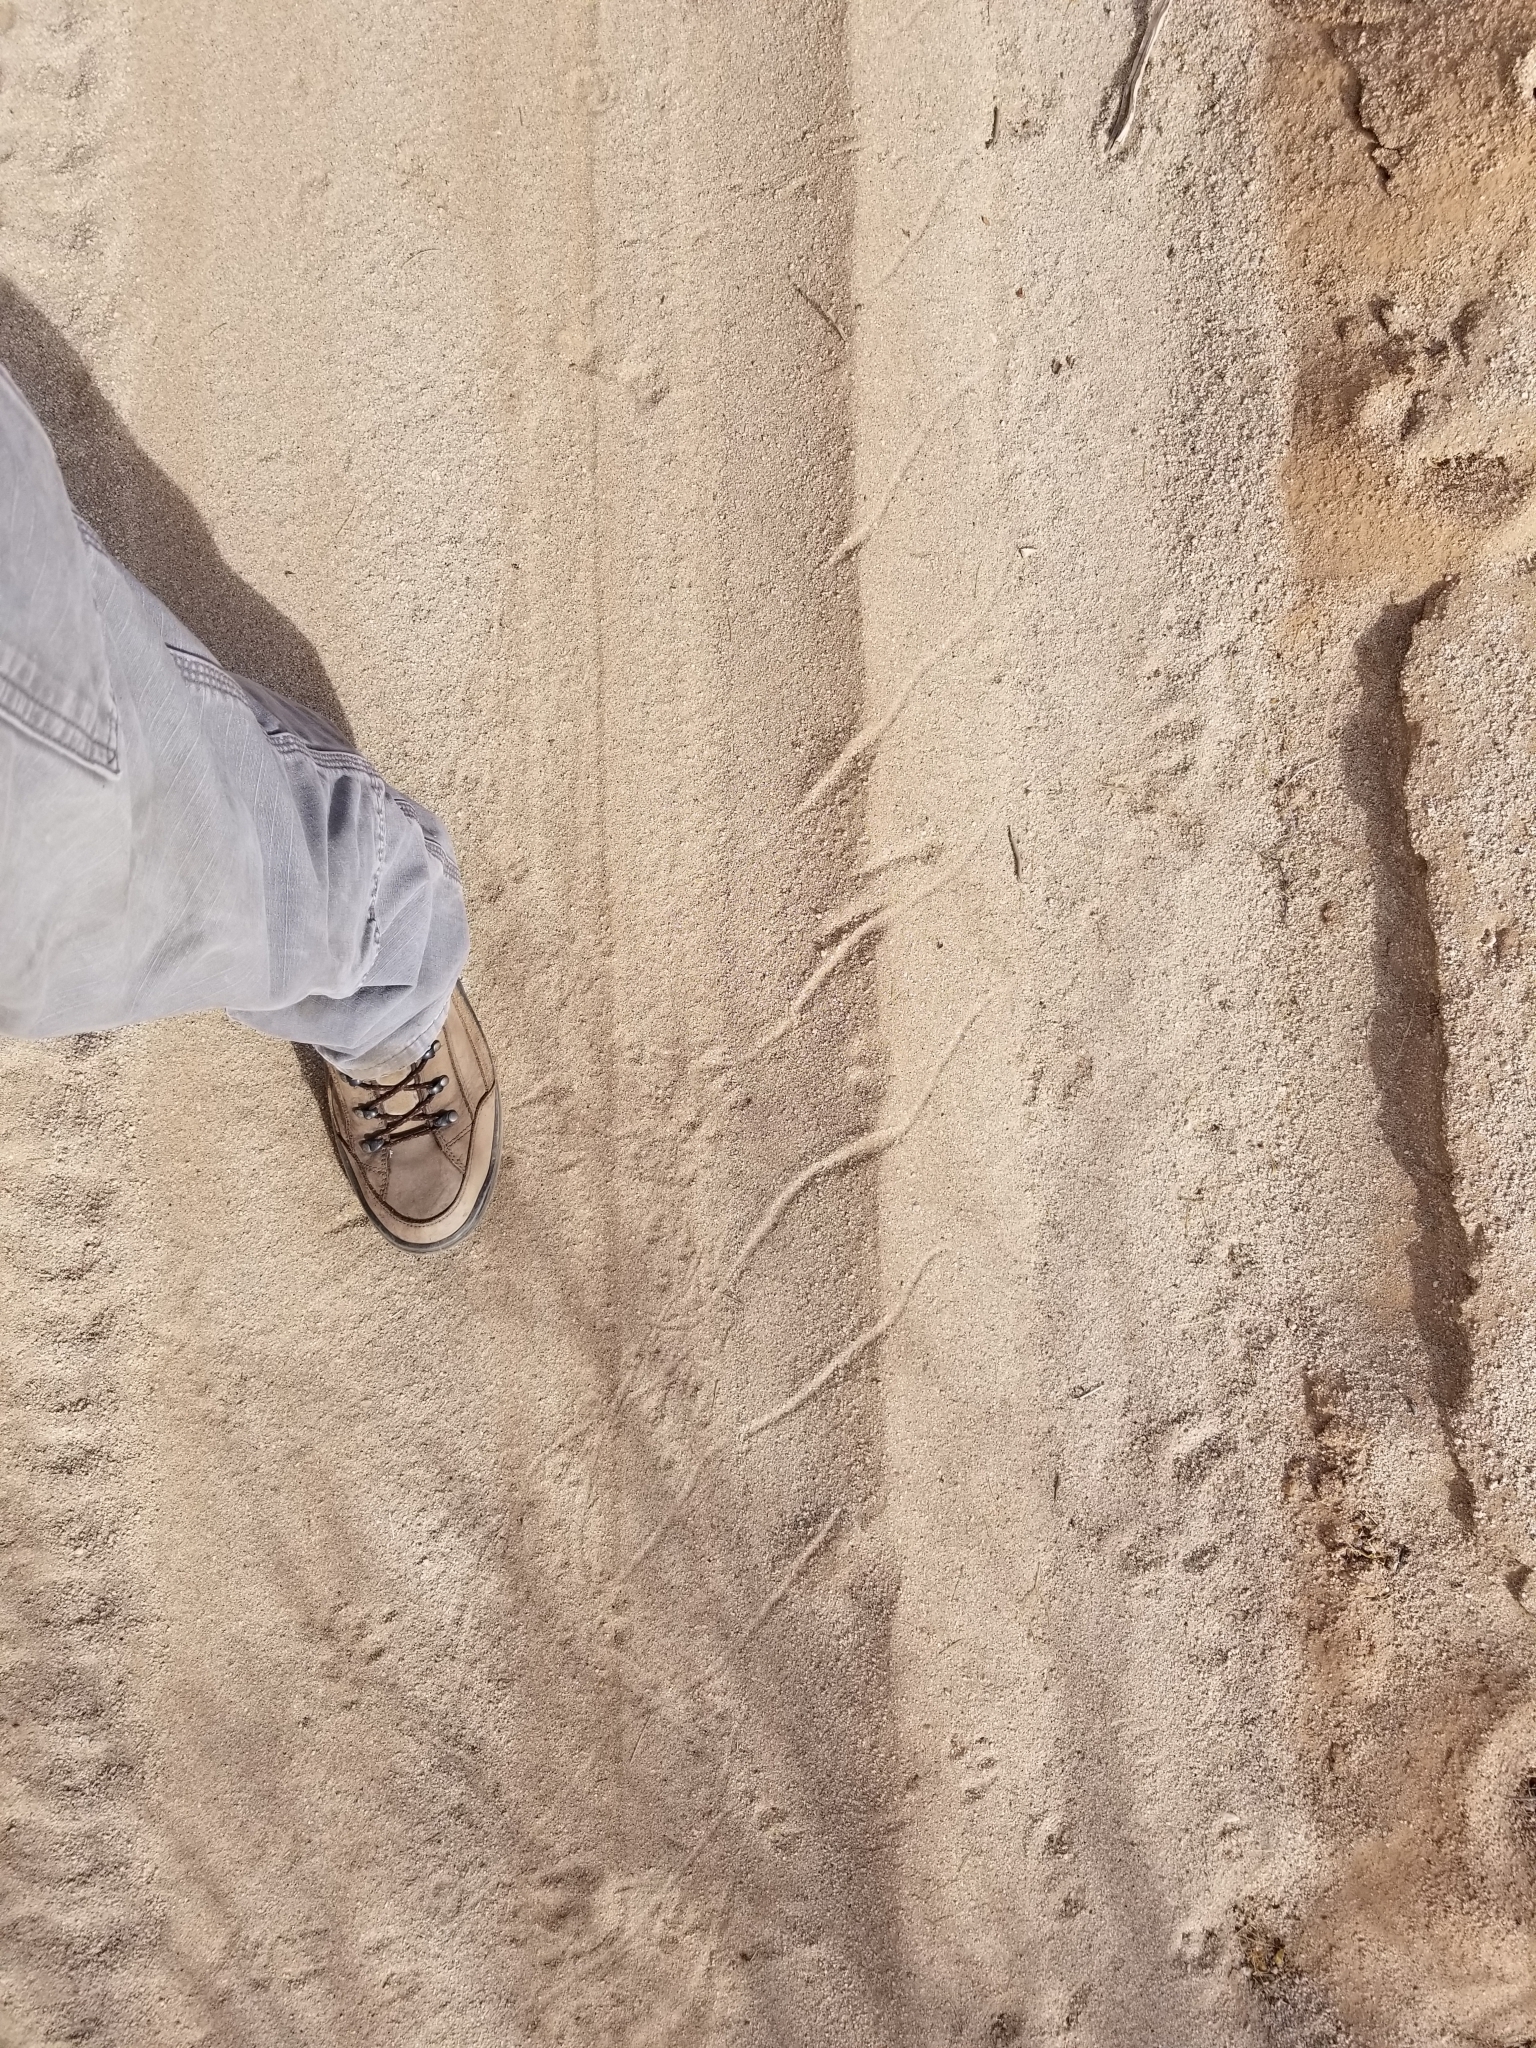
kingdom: Animalia
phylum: Chordata
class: Squamata
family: Viperidae
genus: Crotalus
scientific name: Crotalus cerastes
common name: Sidewinder
